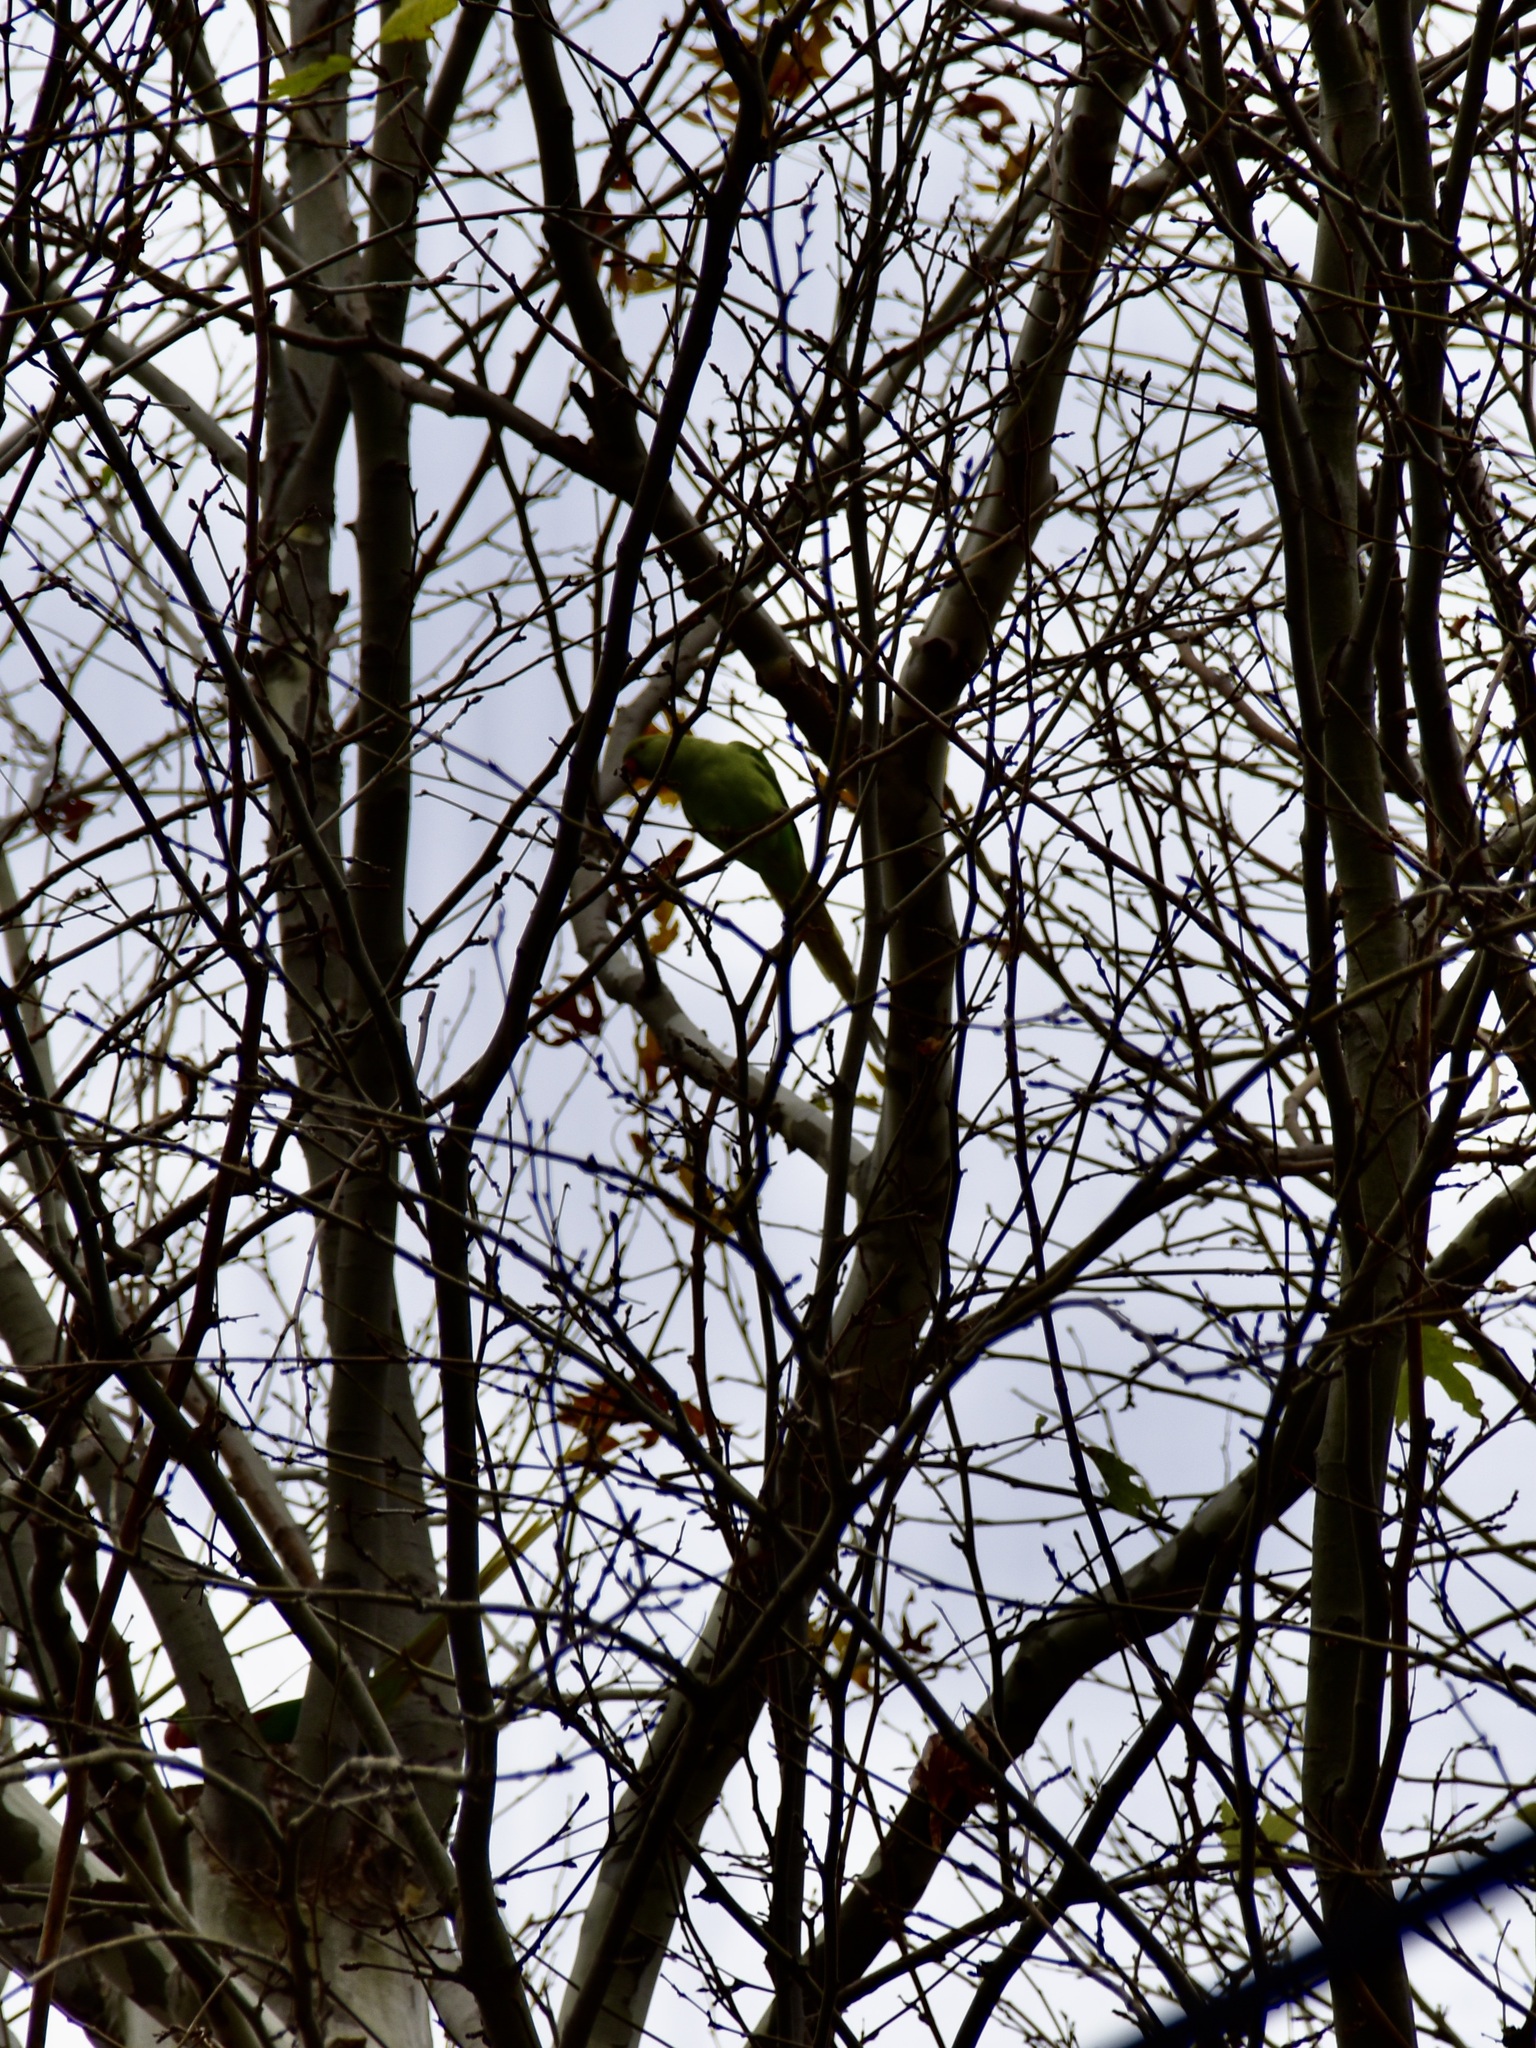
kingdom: Animalia
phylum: Chordata
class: Aves
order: Psittaciformes
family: Psittacidae
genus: Psittacula
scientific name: Psittacula krameri
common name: Rose-ringed parakeet
